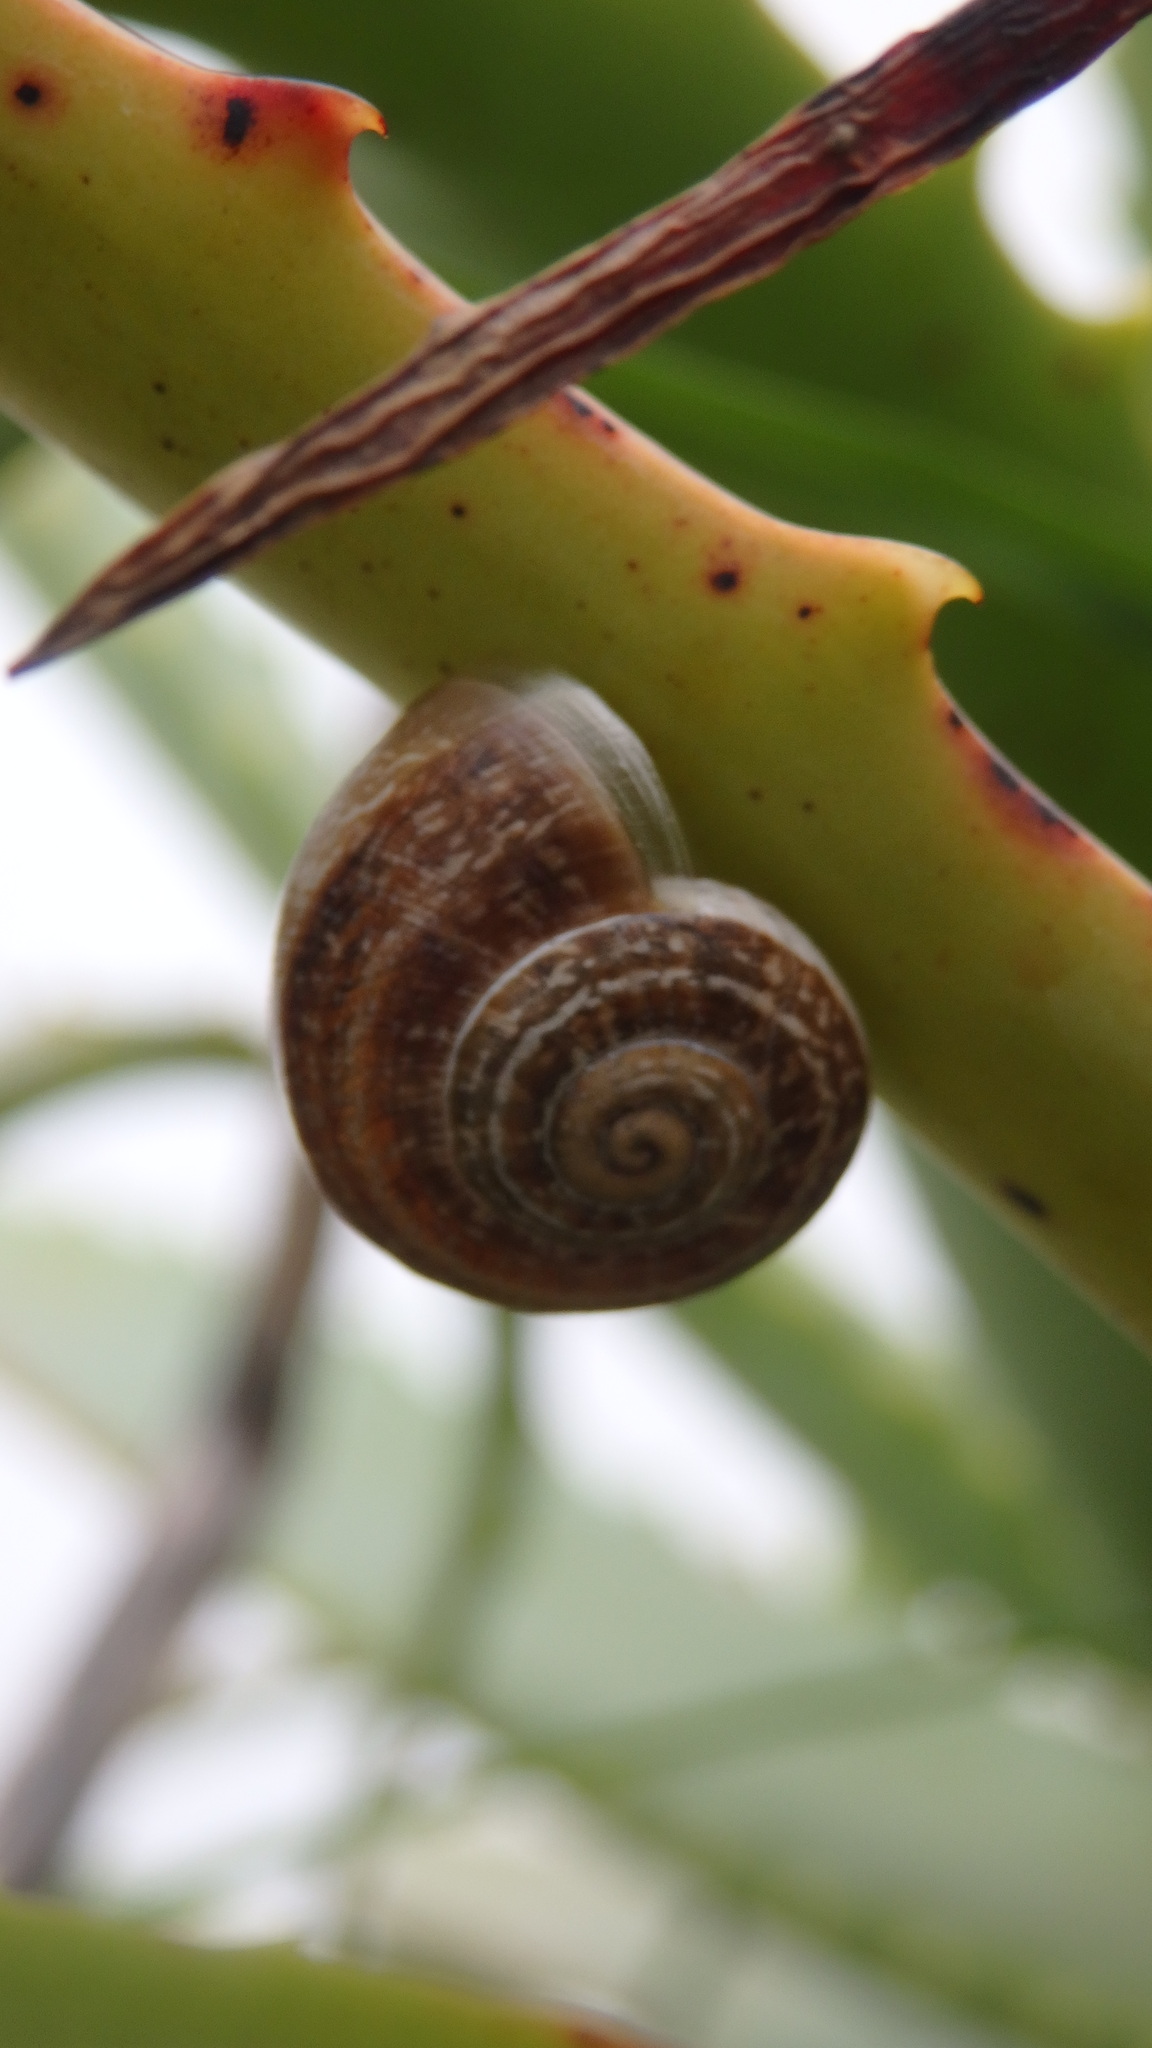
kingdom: Animalia
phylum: Mollusca
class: Gastropoda
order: Stylommatophora
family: Helicidae
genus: Otala
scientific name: Otala lactea
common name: Milk snail
